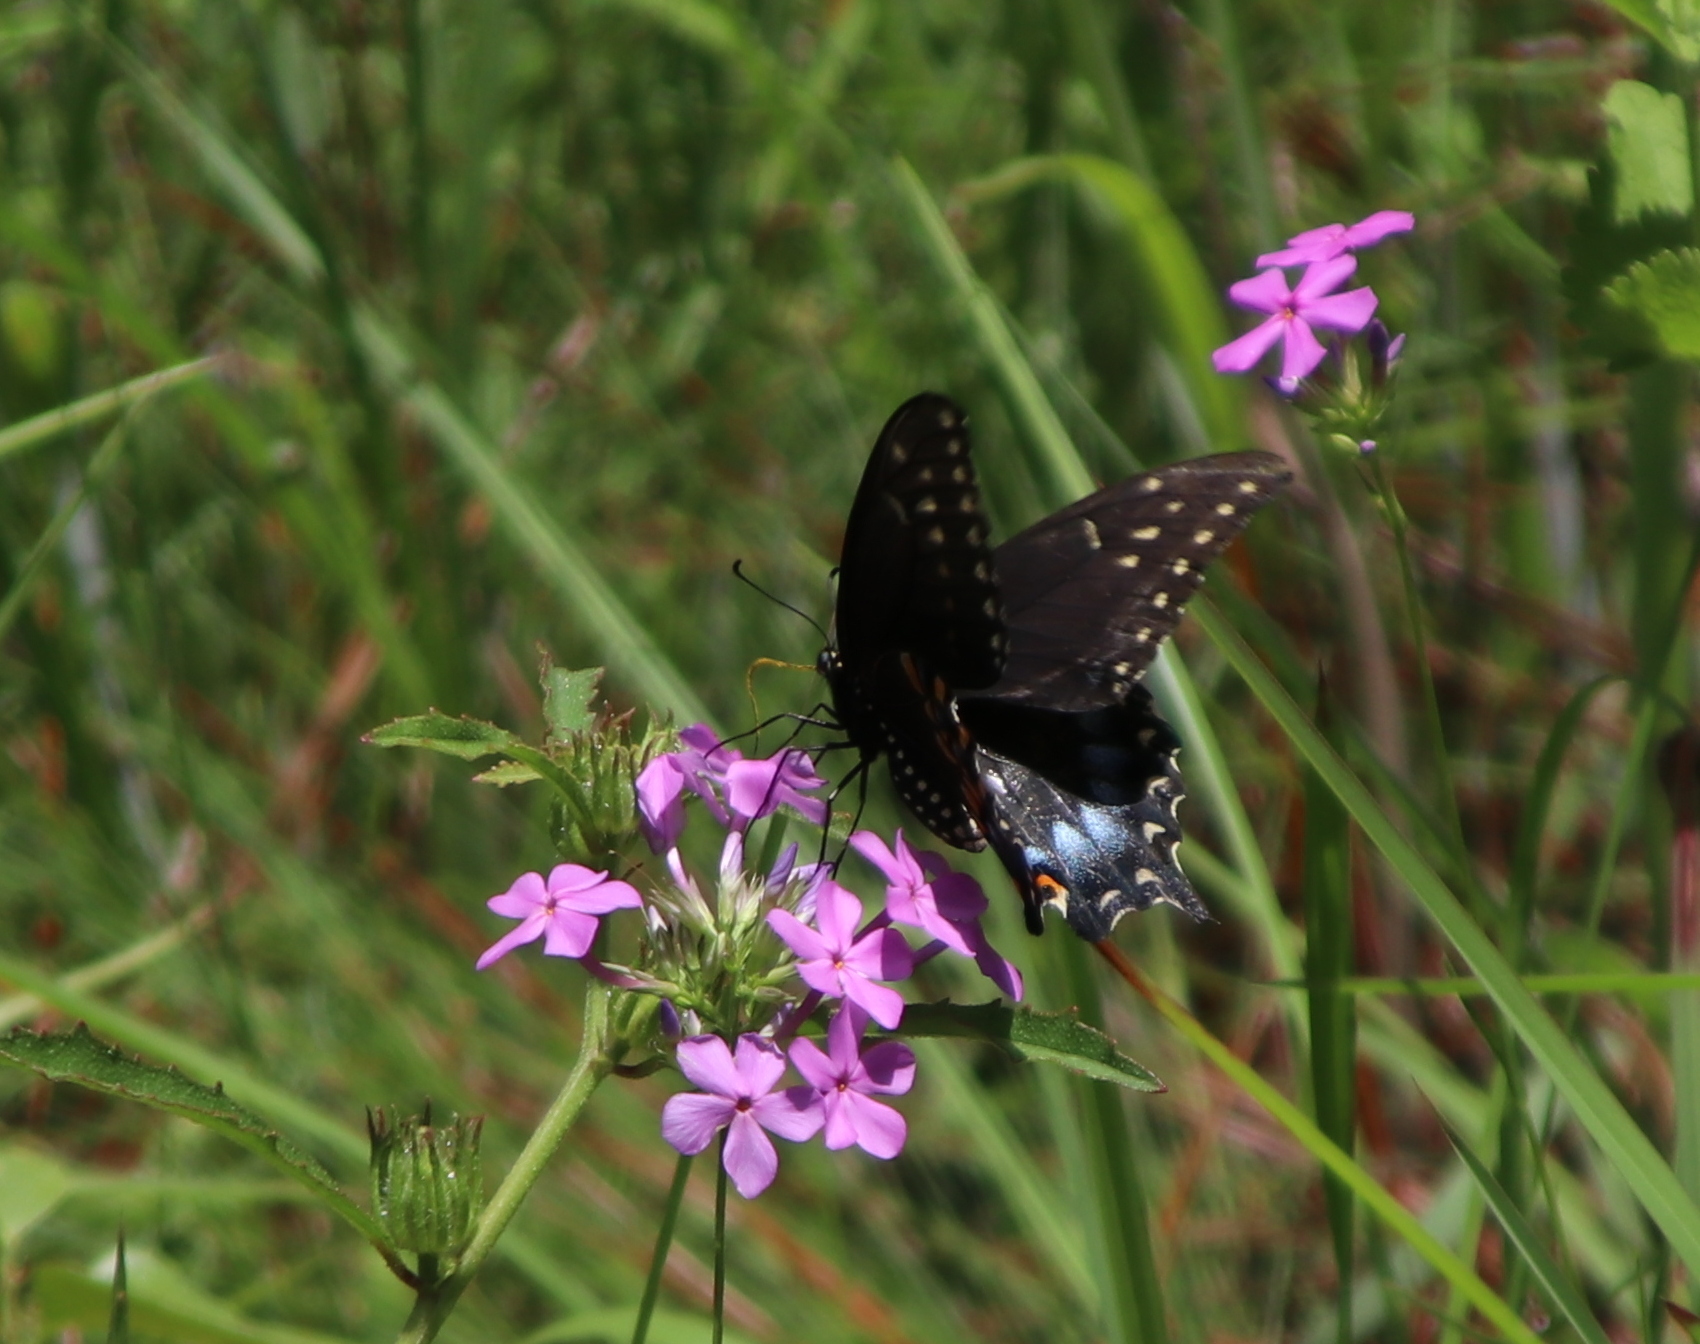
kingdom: Animalia
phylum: Arthropoda
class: Insecta
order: Lepidoptera
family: Papilionidae
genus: Papilio
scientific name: Papilio polyxenes
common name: Black swallowtail
